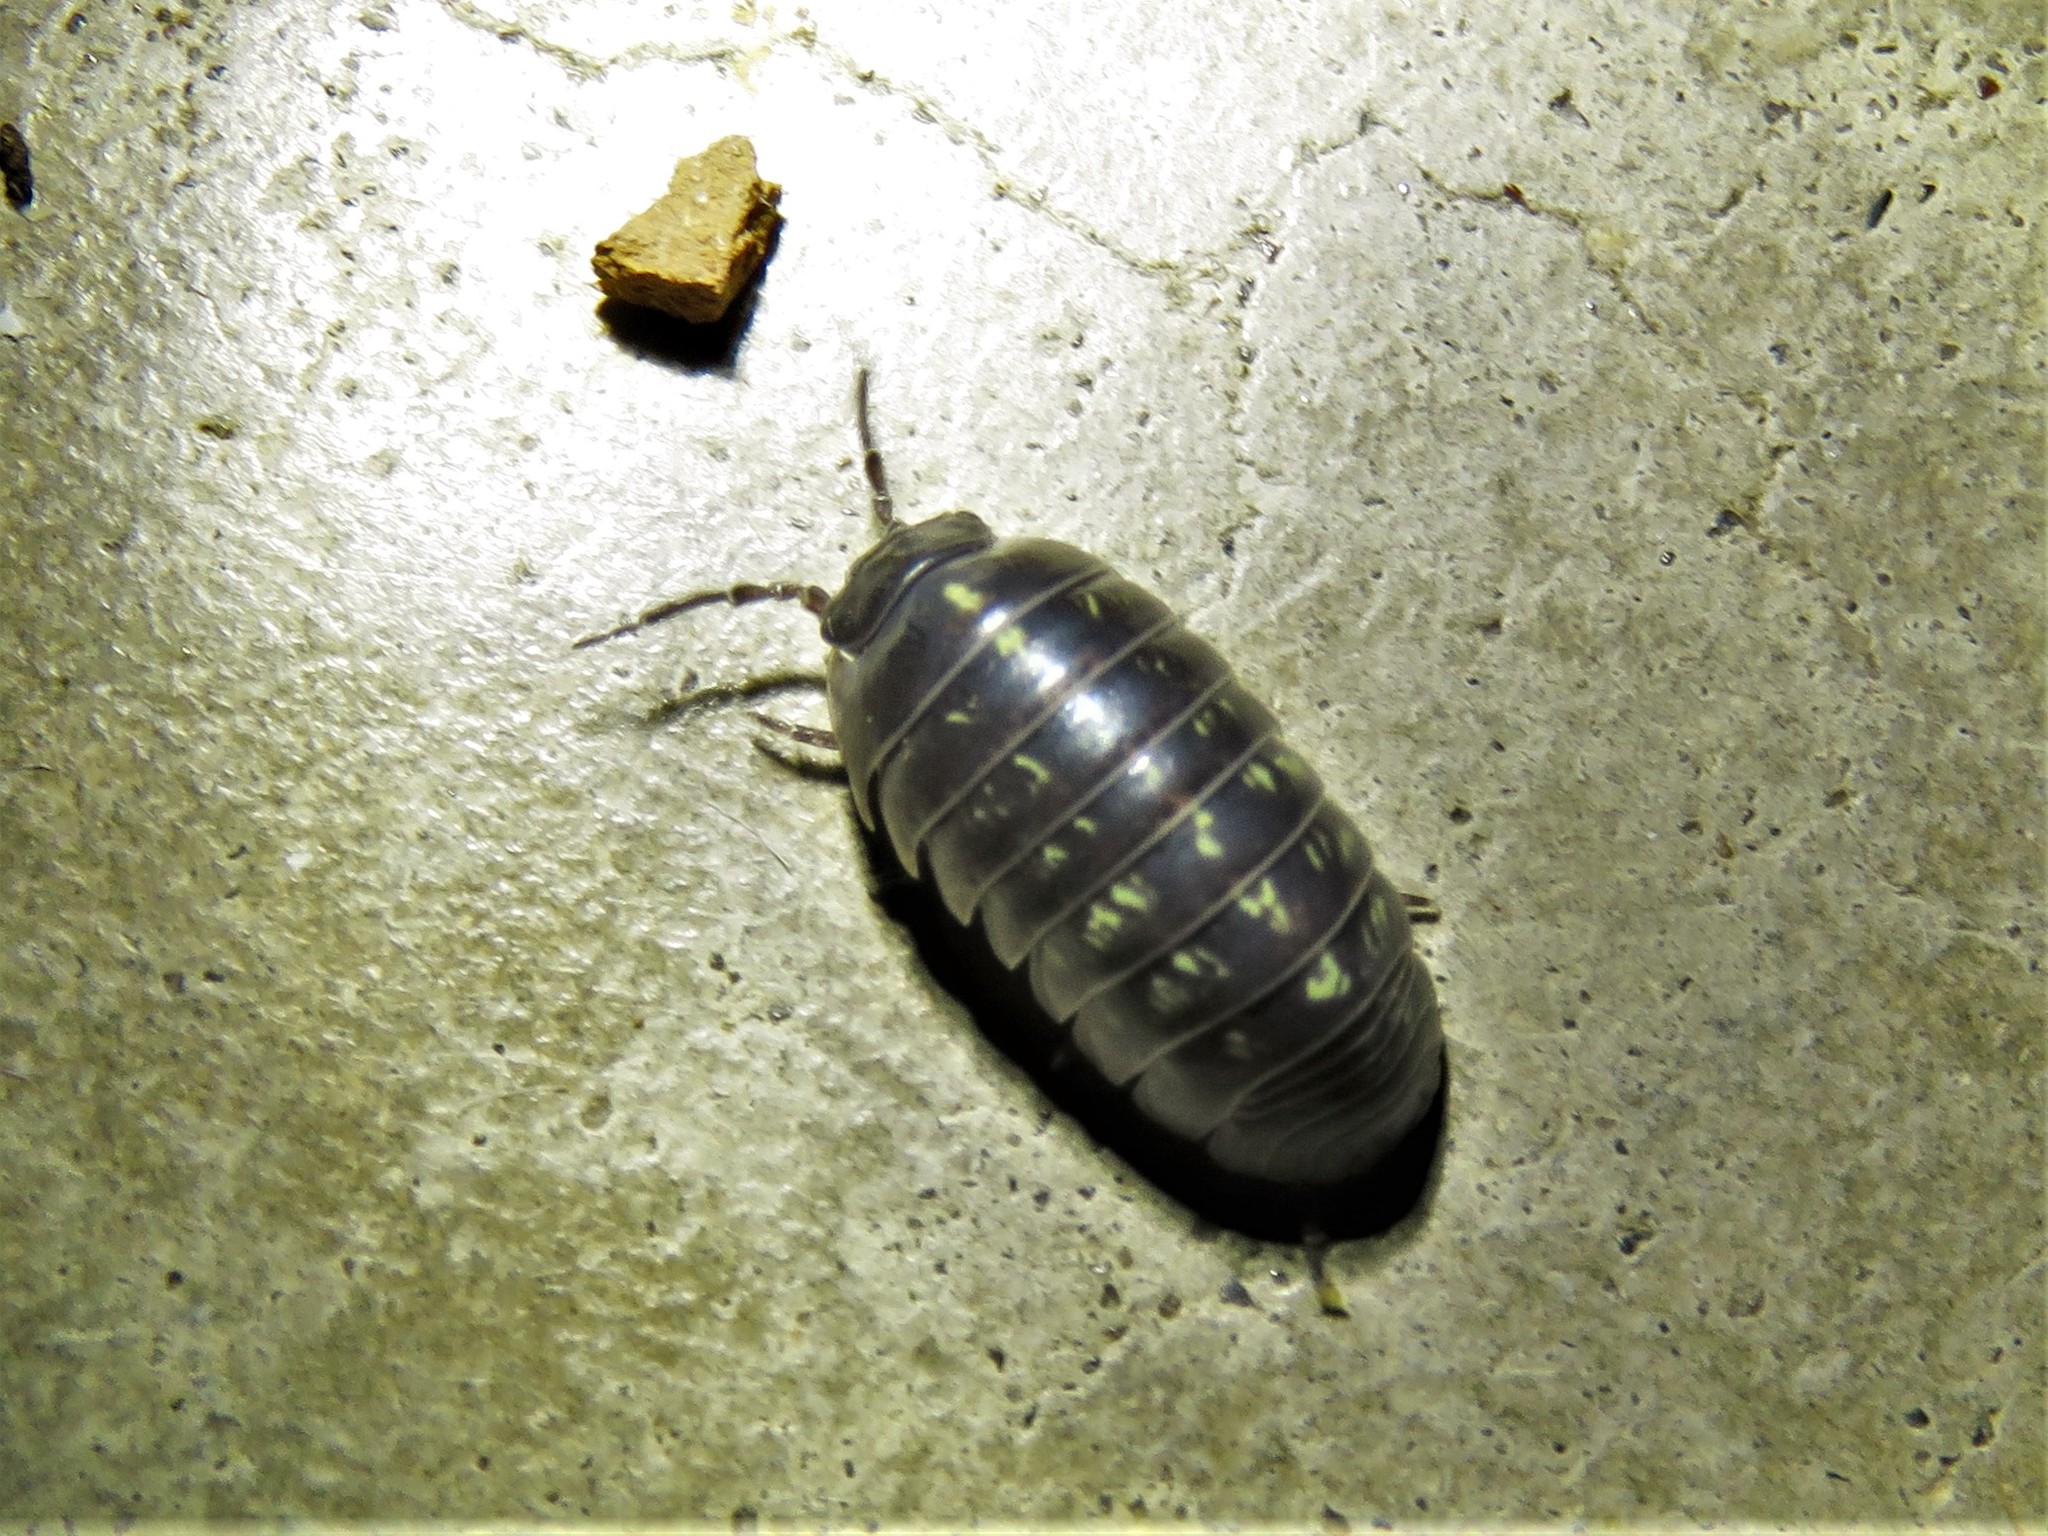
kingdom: Animalia
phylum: Arthropoda
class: Malacostraca
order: Isopoda
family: Armadillidiidae
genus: Armadillidium
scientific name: Armadillidium vulgare
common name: Common pill woodlouse
